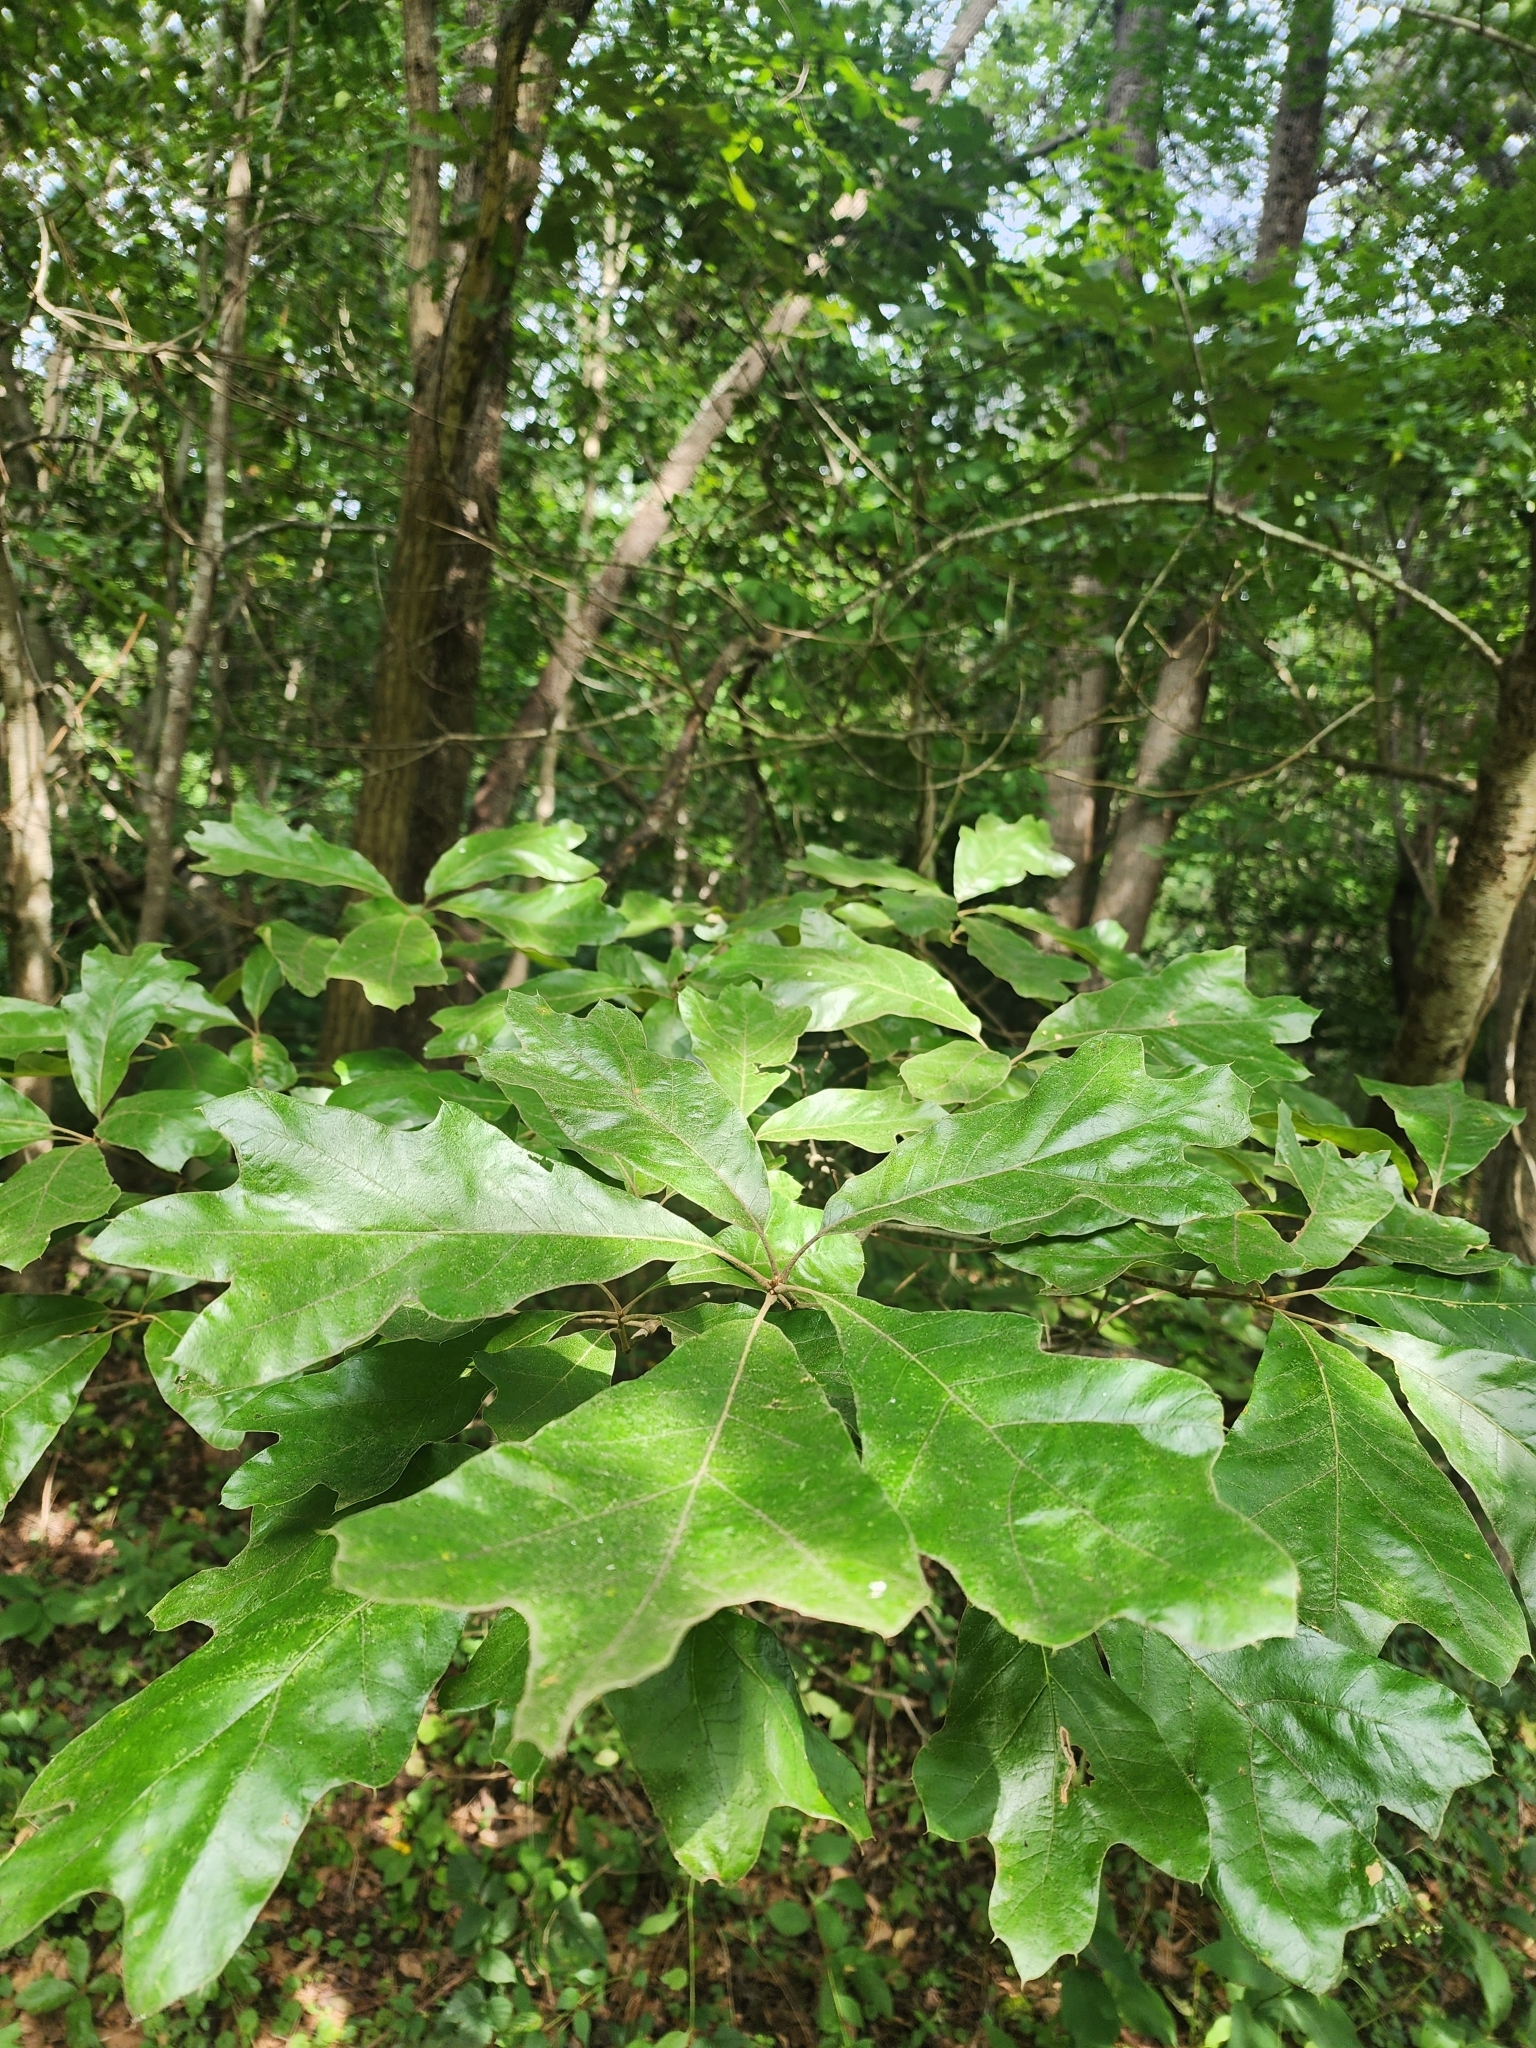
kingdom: Plantae
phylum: Tracheophyta
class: Magnoliopsida
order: Fagales
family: Fagaceae
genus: Quercus
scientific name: Quercus falcata
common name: Southern red oak
